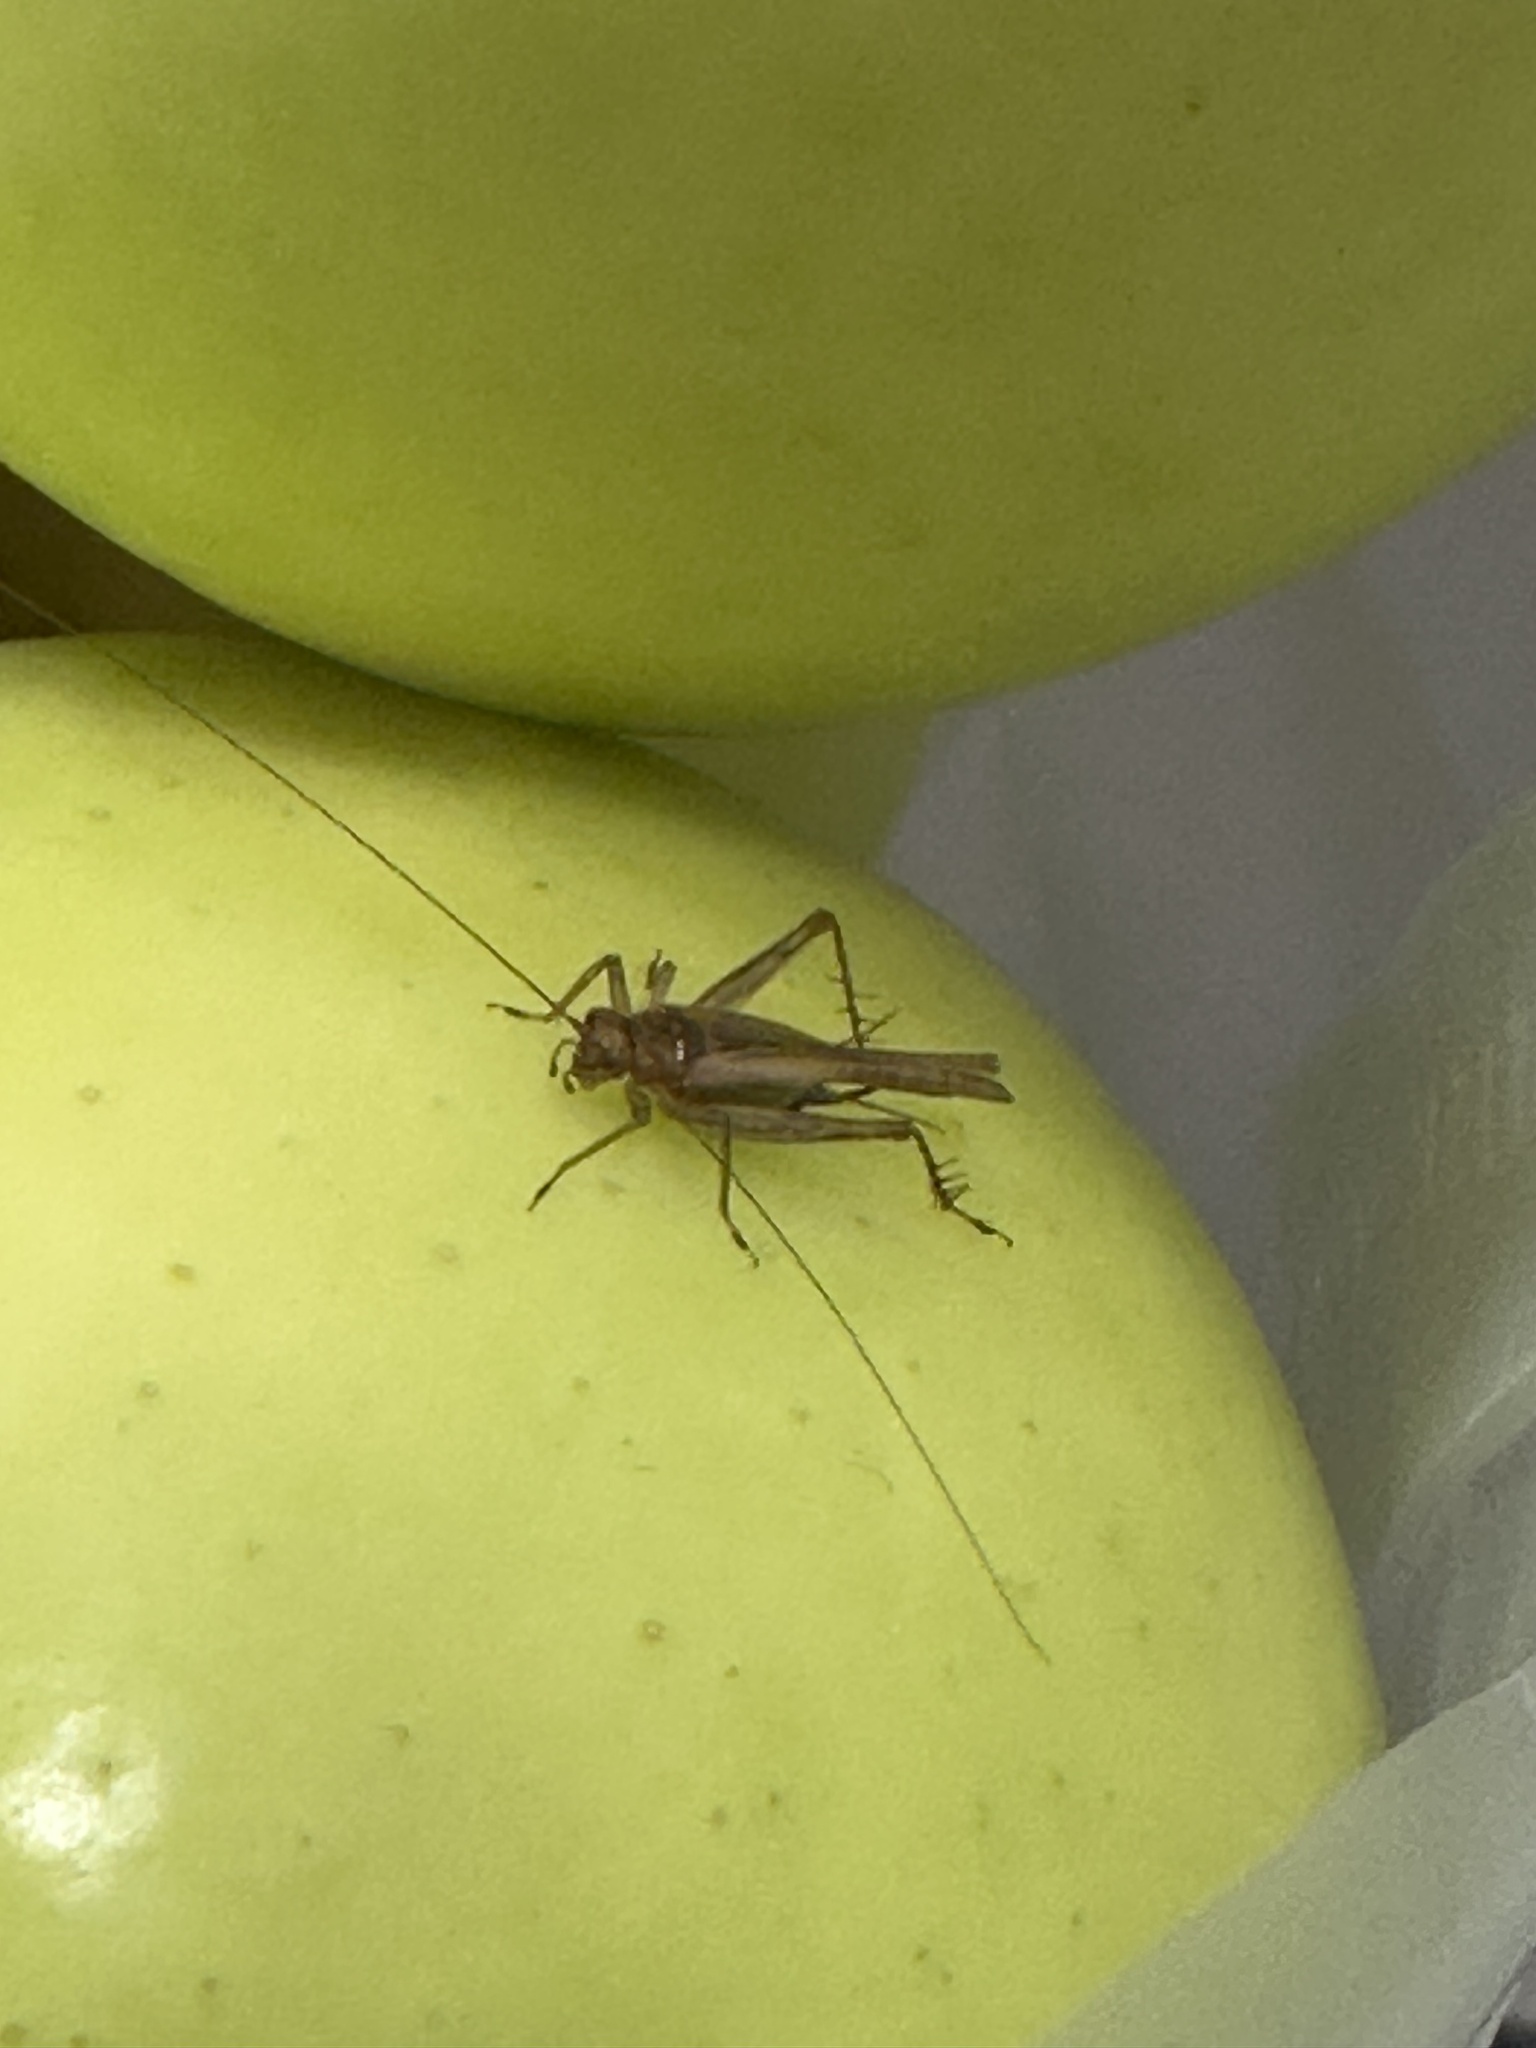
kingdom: Animalia
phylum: Arthropoda
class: Insecta
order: Orthoptera
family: Trigonidiidae
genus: Anaxipha
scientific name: Anaxipha exigua
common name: Say's bush cricket
